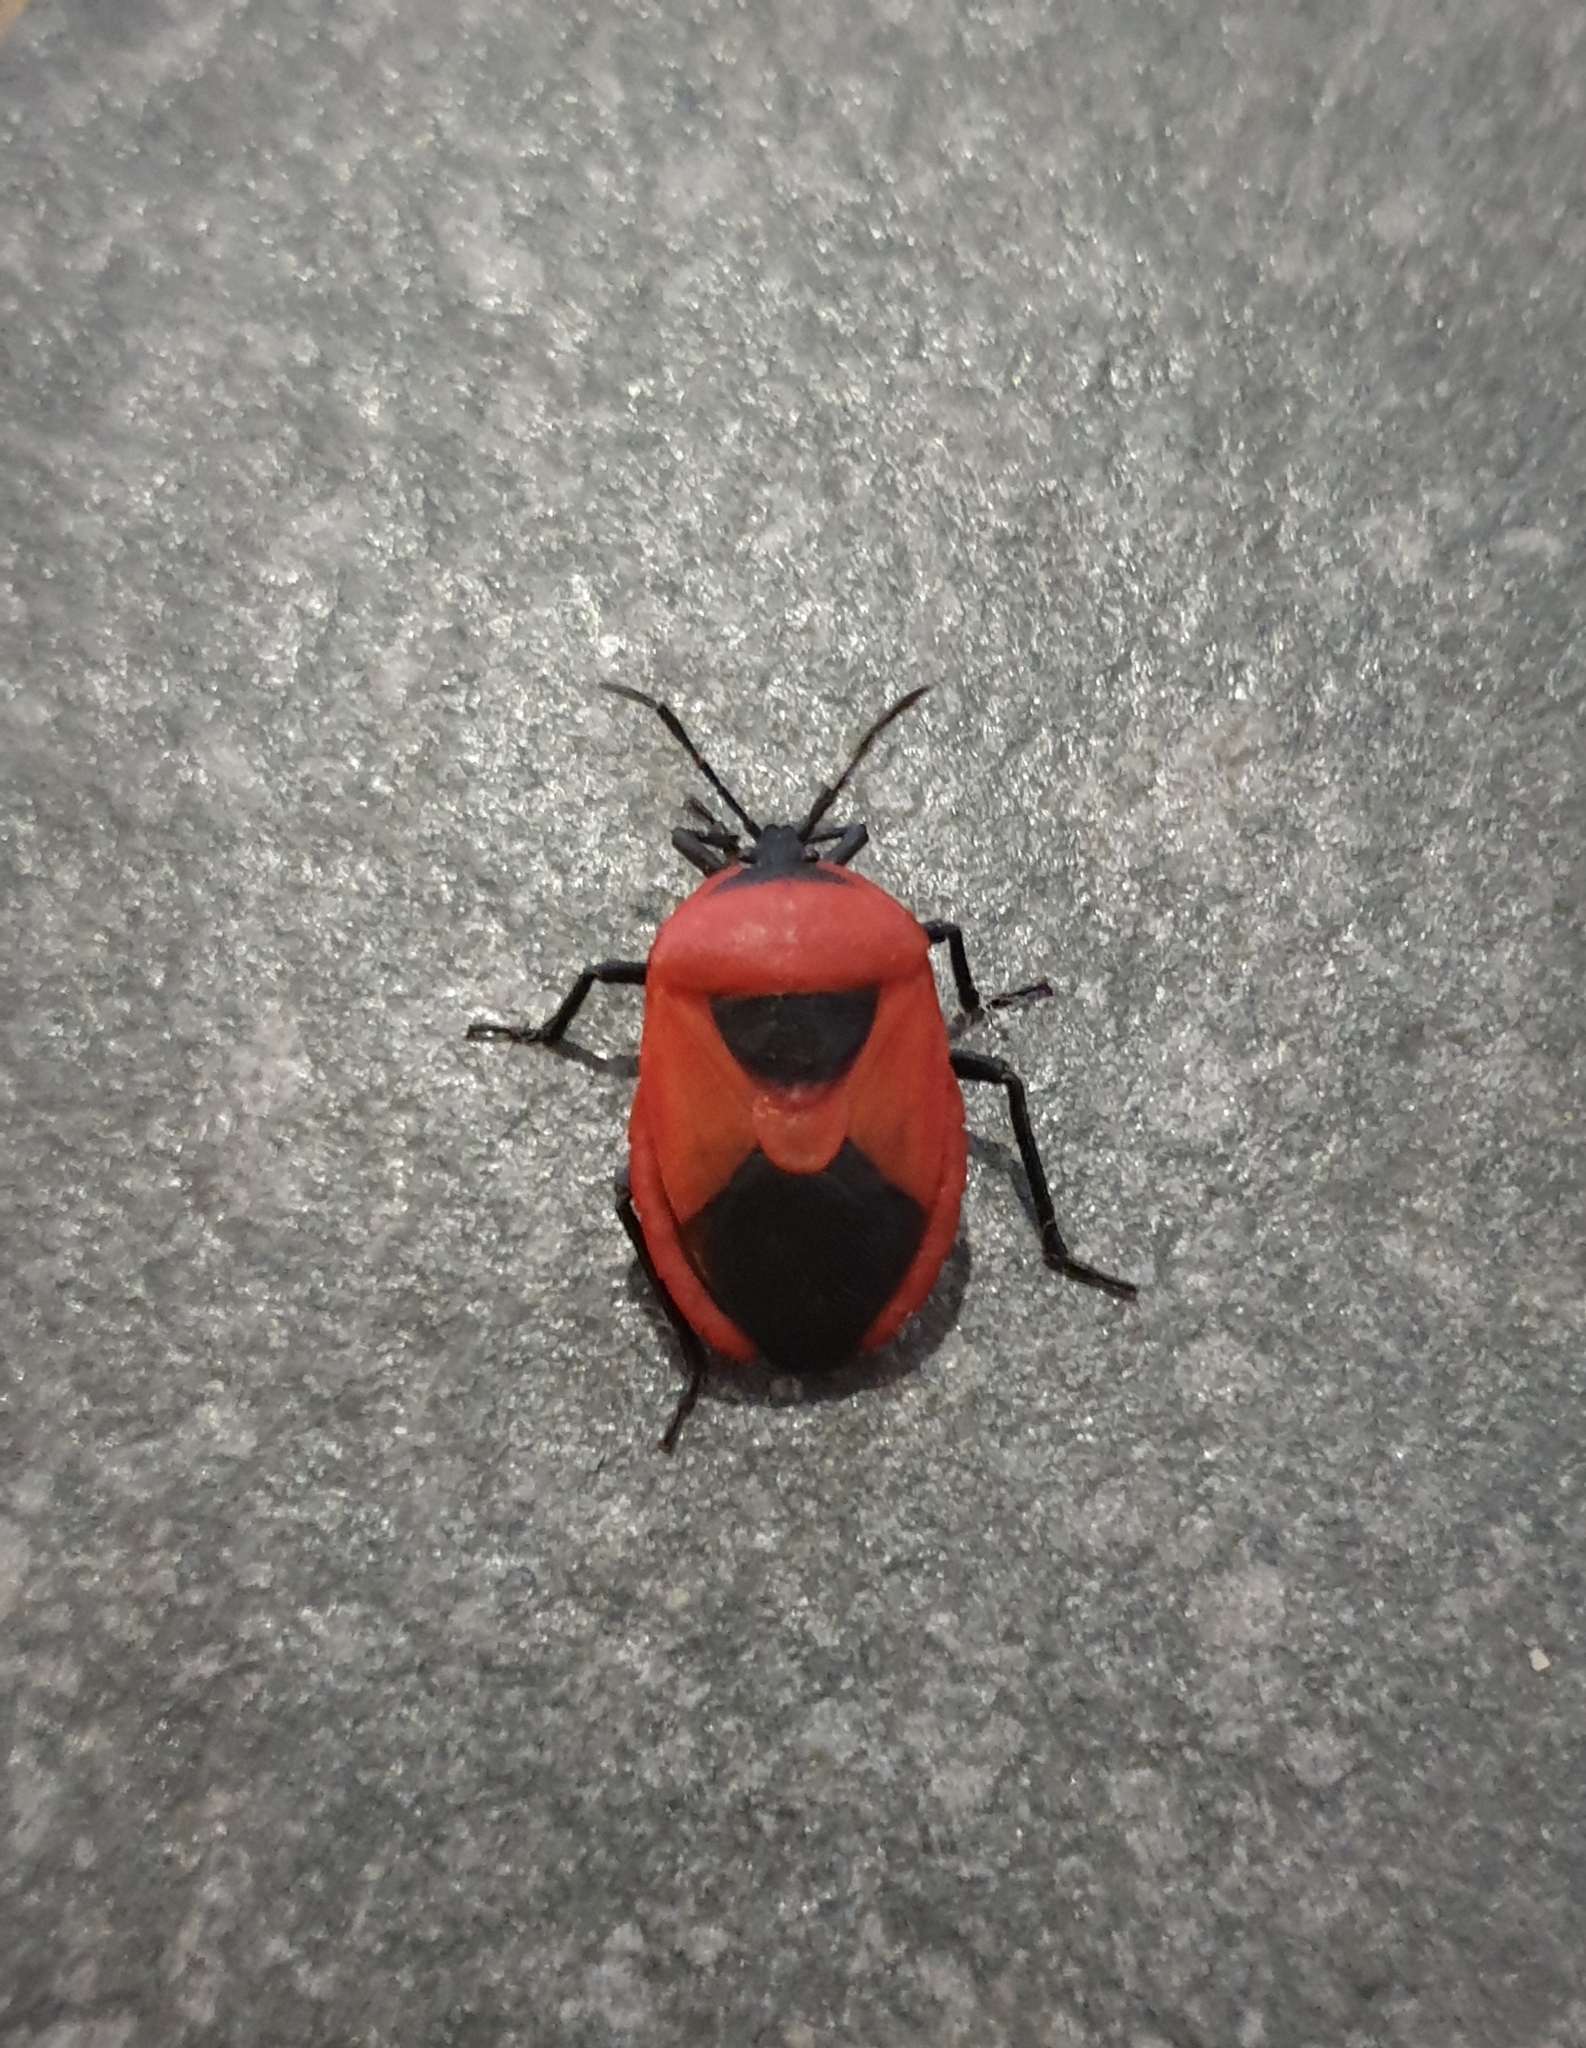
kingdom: Animalia
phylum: Arthropoda
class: Insecta
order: Hemiptera
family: Dinidoridae
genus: Coridius
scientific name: Coridius ianus
